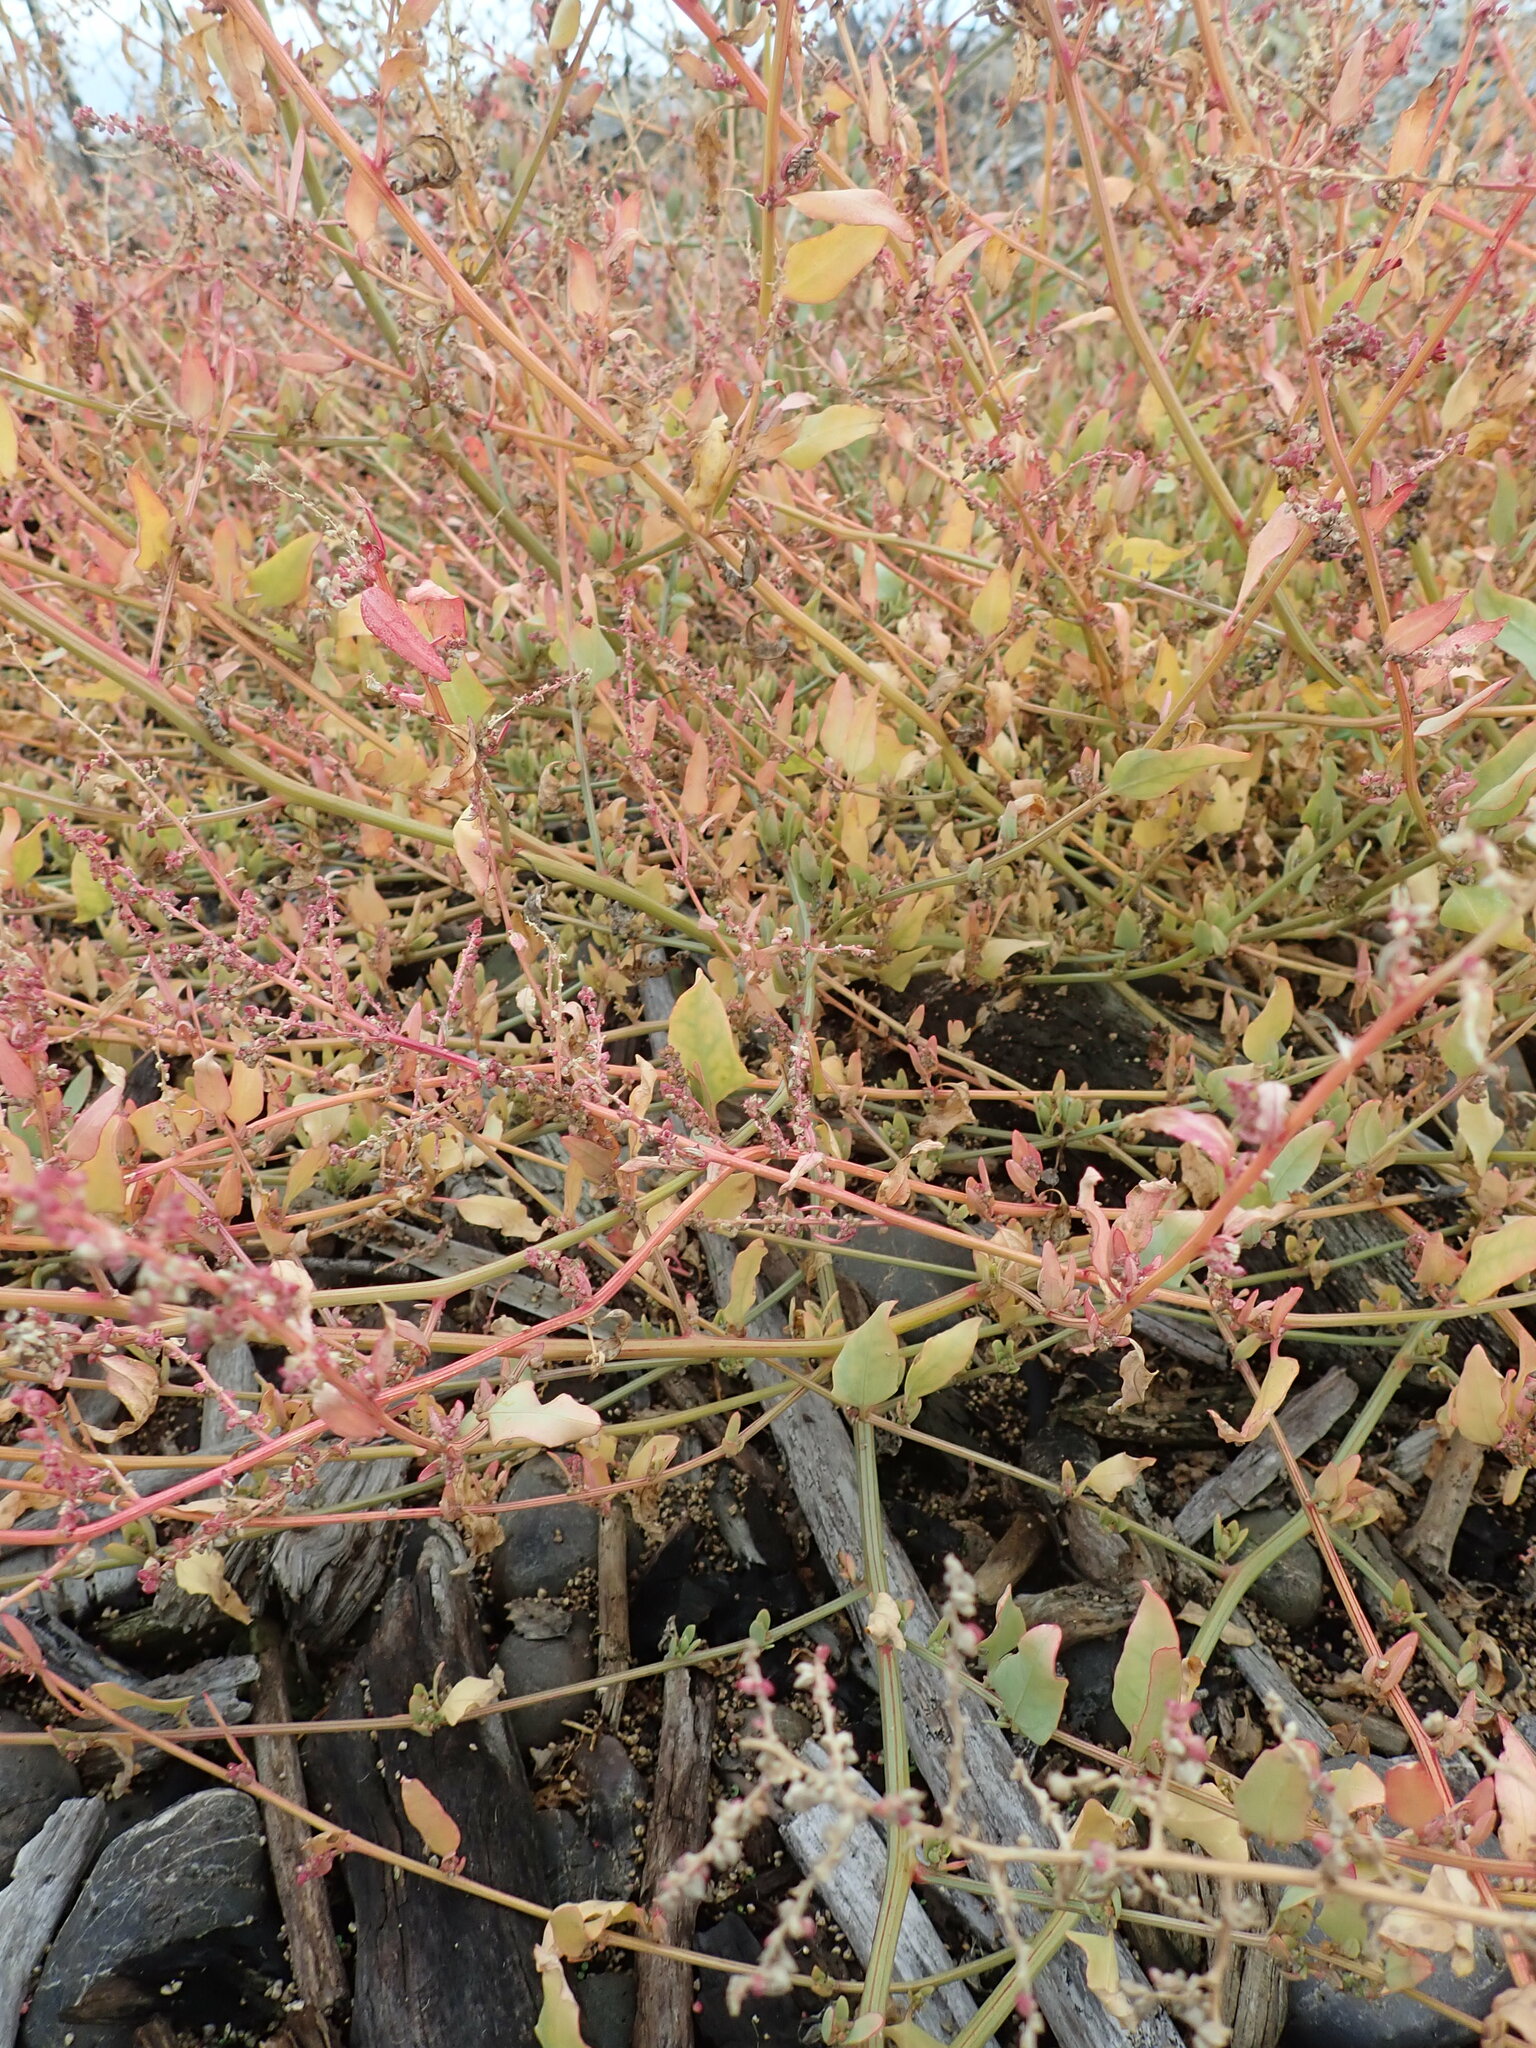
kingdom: Plantae
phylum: Tracheophyta
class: Magnoliopsida
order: Caryophyllales
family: Amaranthaceae
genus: Atriplex
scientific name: Atriplex prostrata
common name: Spear-leaved orache
